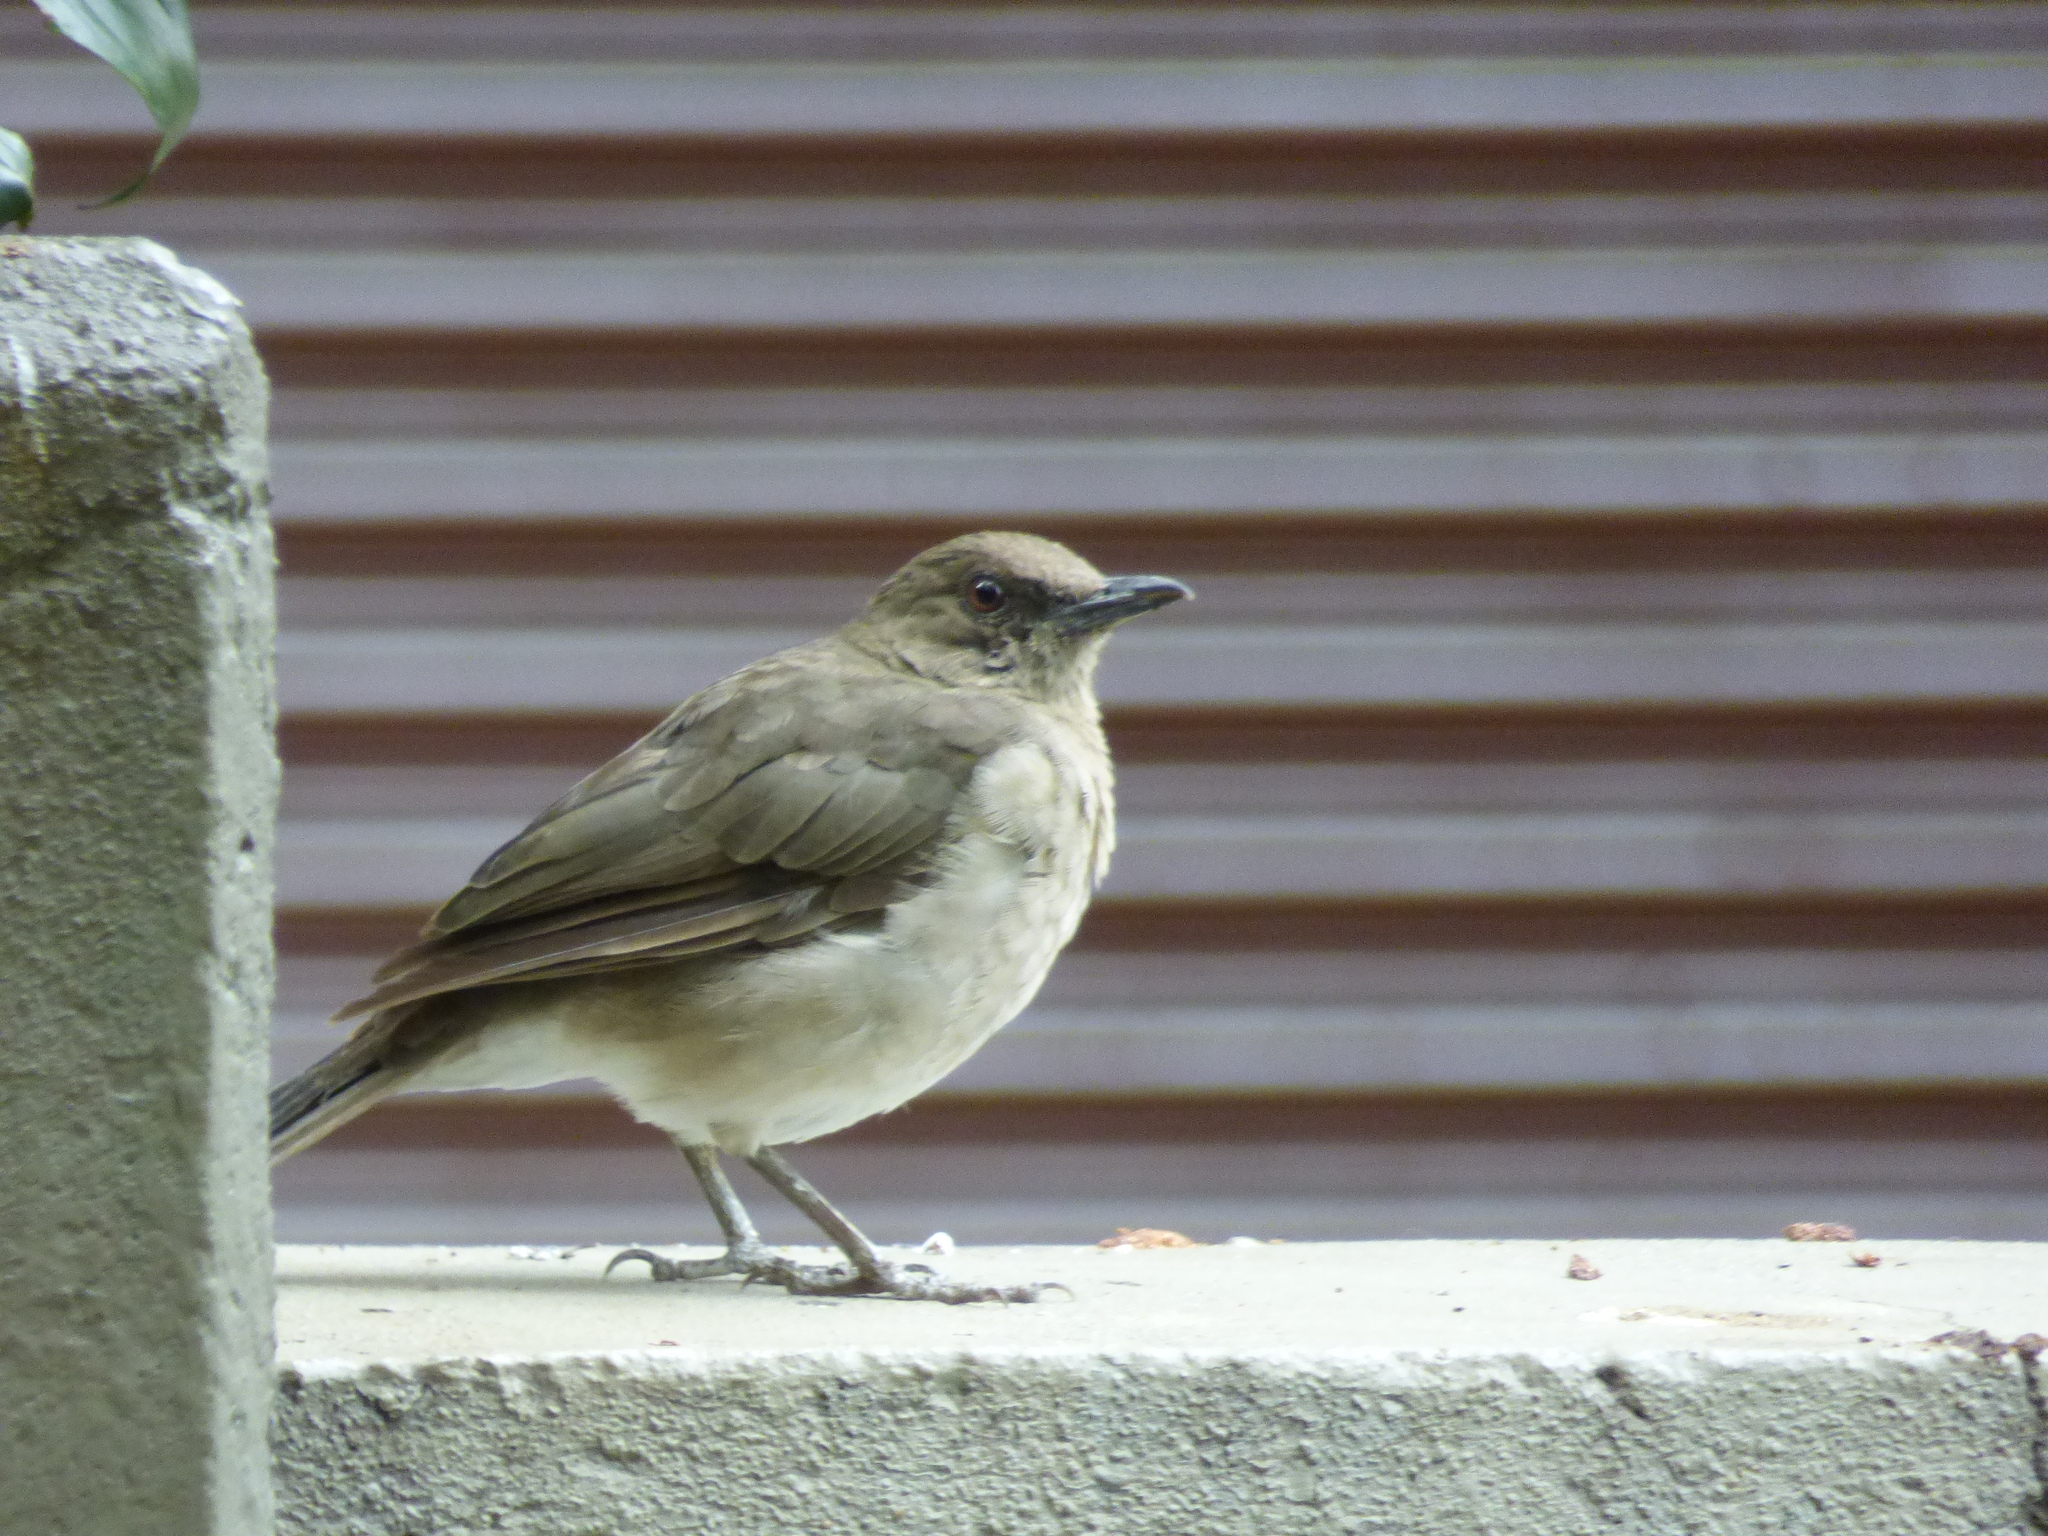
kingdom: Animalia
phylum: Chordata
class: Aves
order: Passeriformes
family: Turdidae
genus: Turdus
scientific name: Turdus ignobilis
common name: Black-billed thrush
